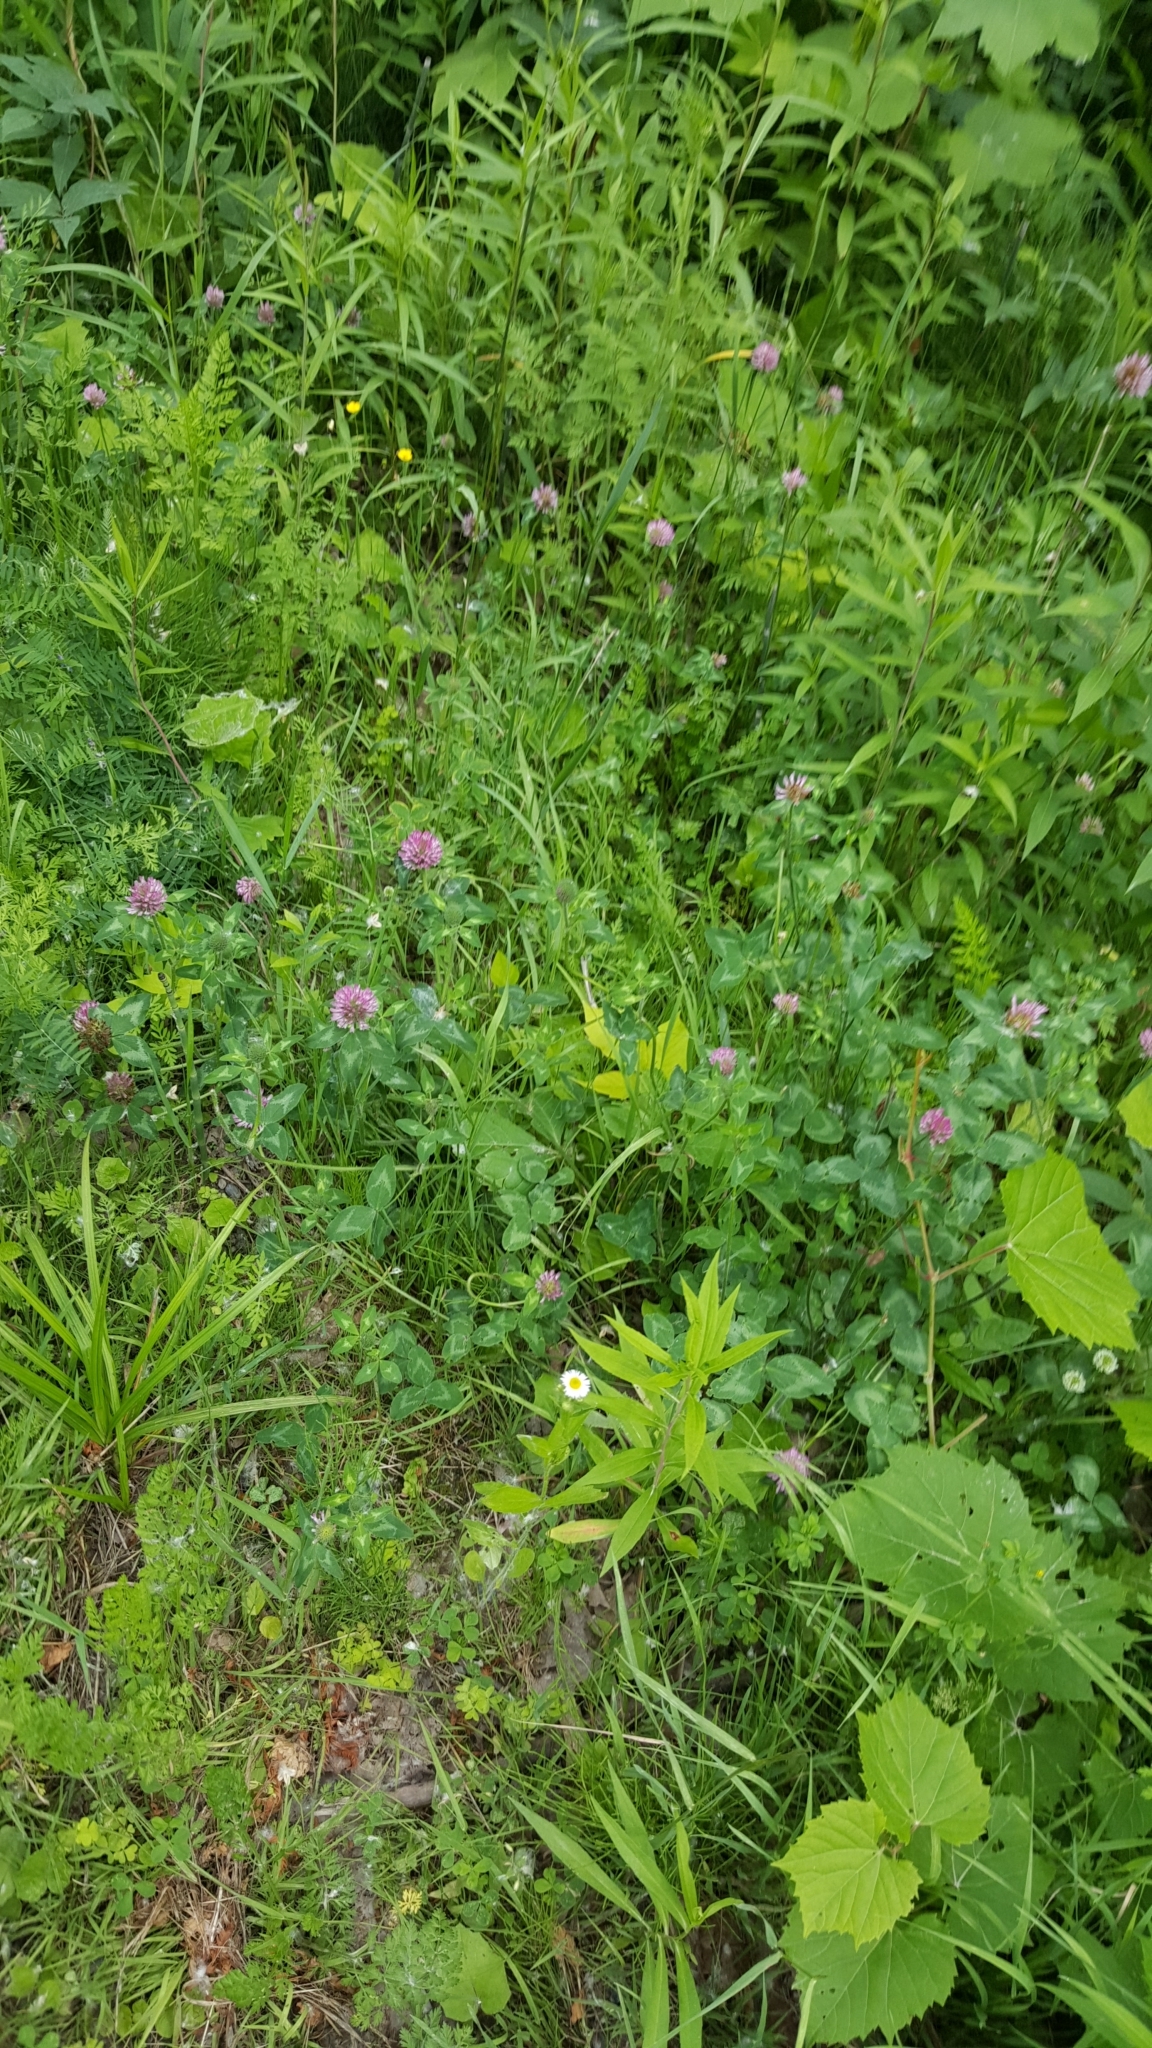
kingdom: Plantae
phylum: Tracheophyta
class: Magnoliopsida
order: Fabales
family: Fabaceae
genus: Trifolium
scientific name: Trifolium pratense
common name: Red clover
